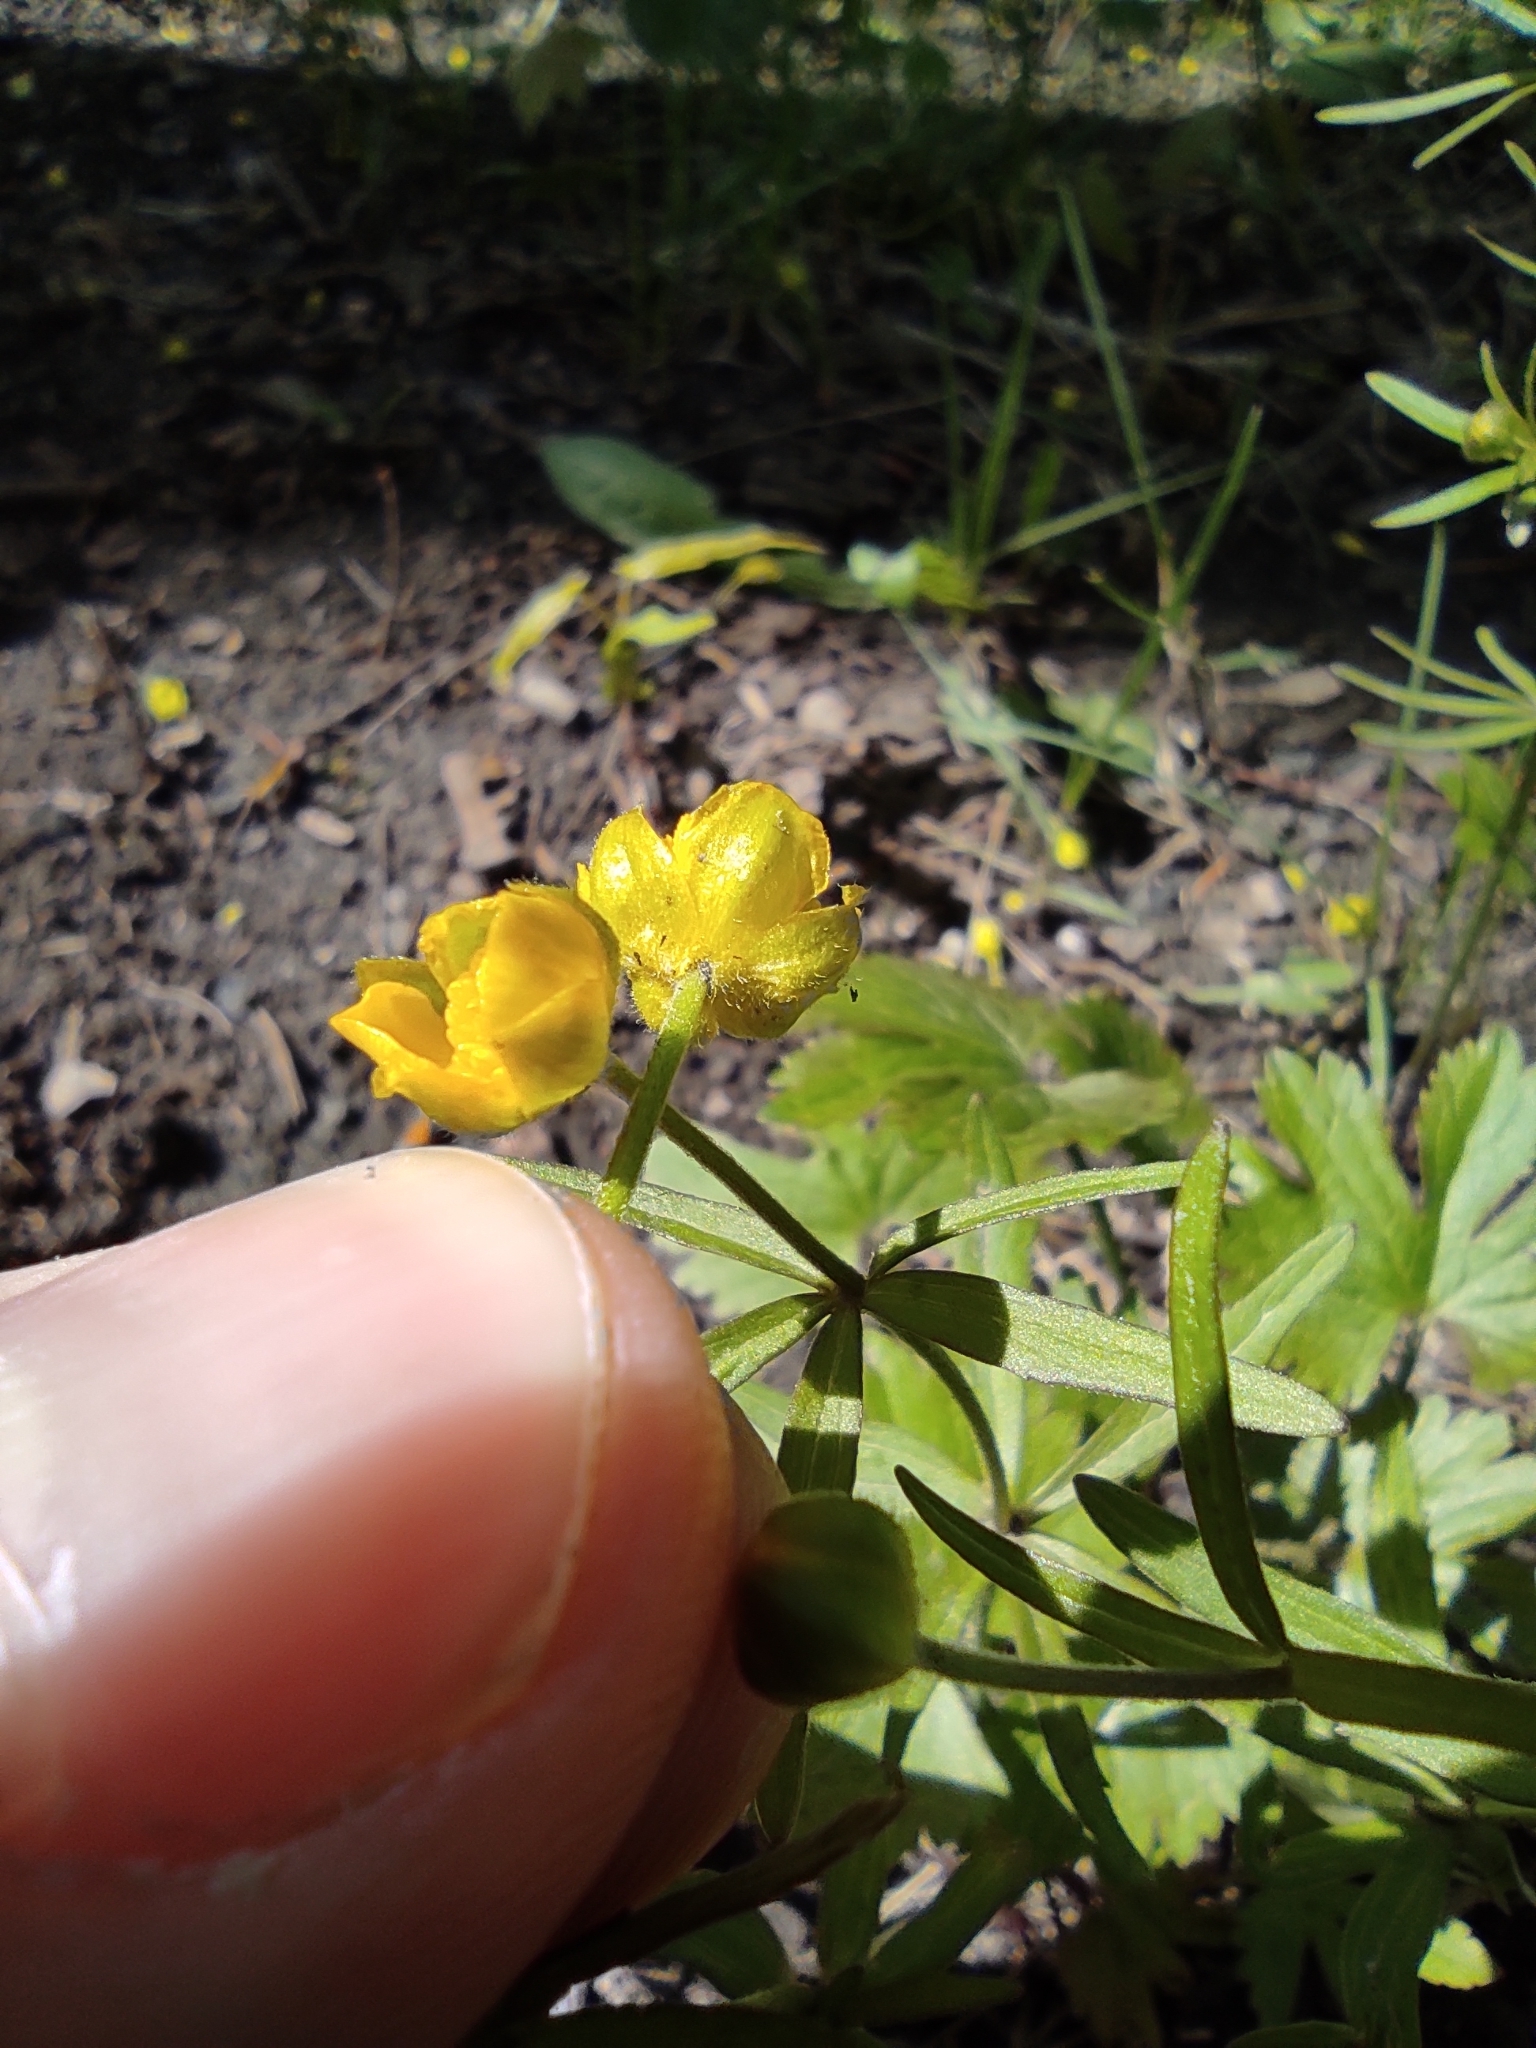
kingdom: Plantae
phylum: Tracheophyta
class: Magnoliopsida
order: Ranunculales
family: Ranunculaceae
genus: Ranunculus
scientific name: Ranunculus auricomus
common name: Goldilocks buttercup
